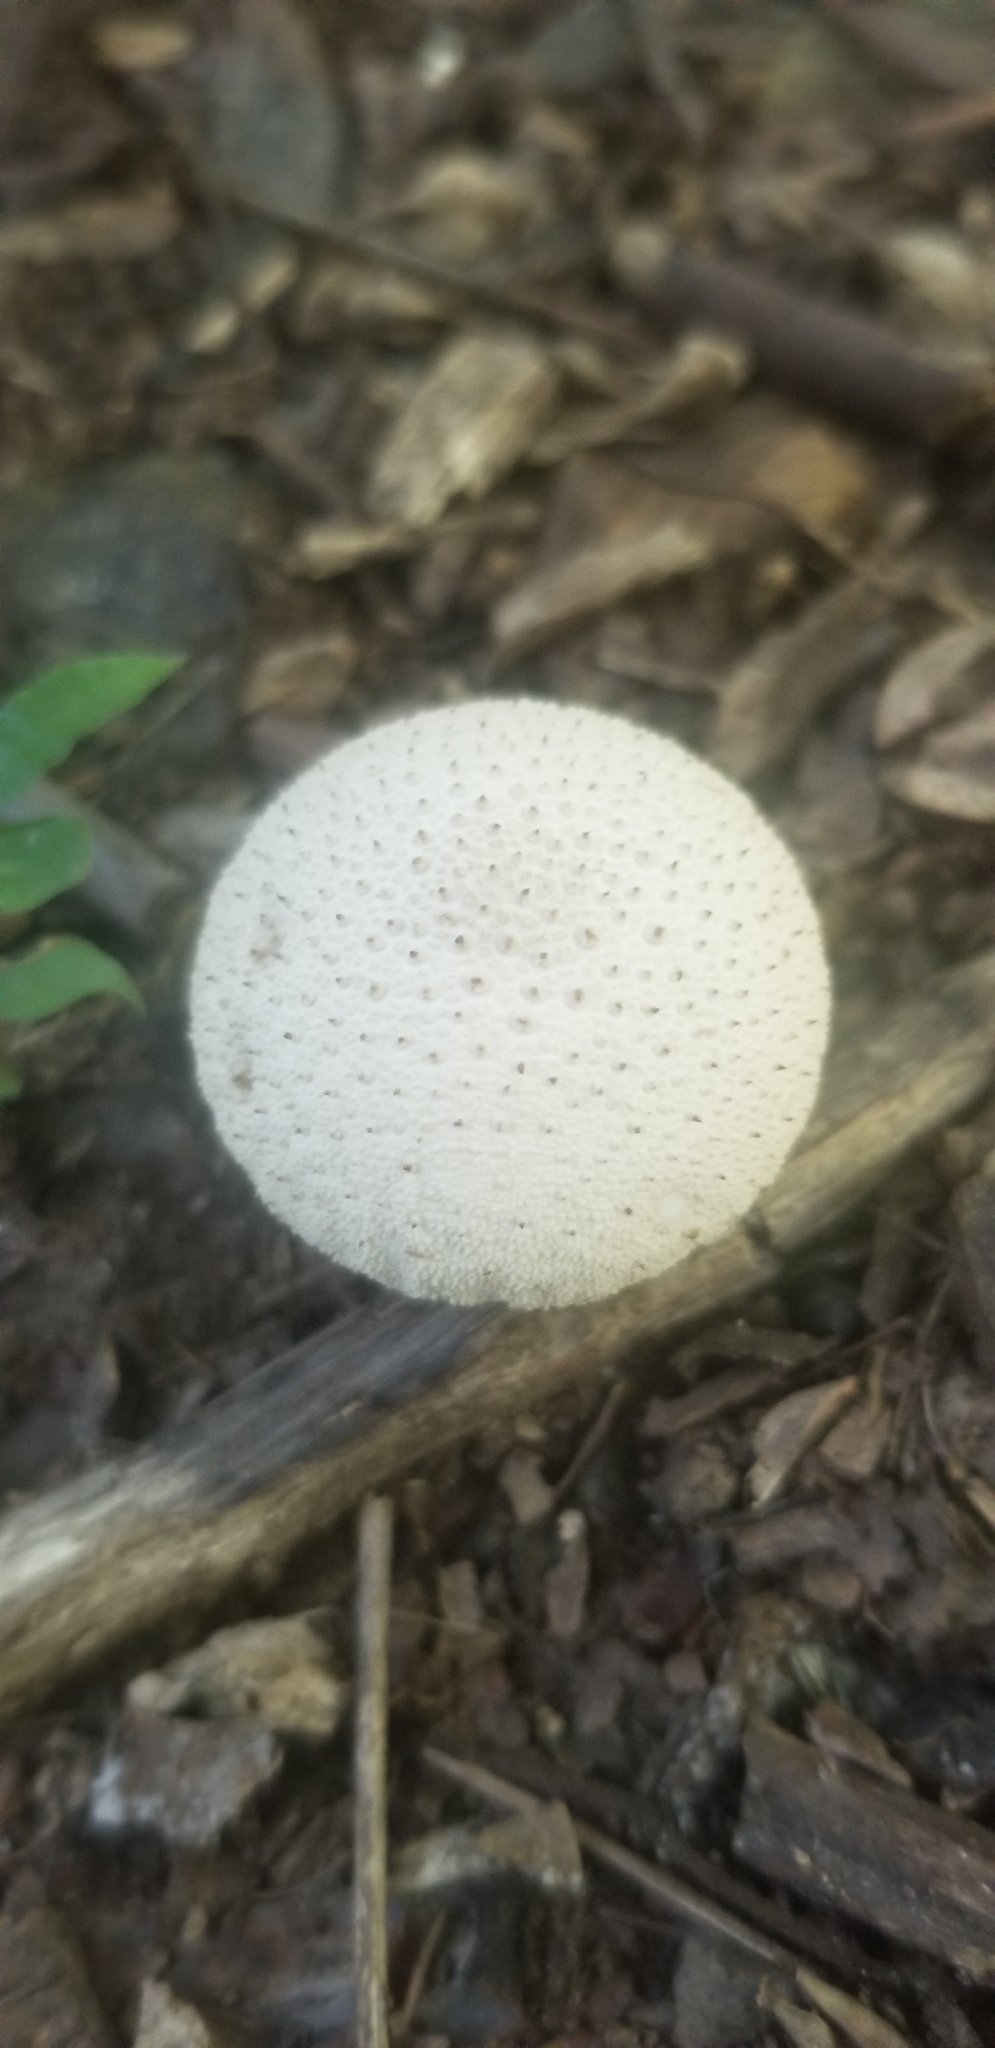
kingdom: Fungi
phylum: Basidiomycota
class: Agaricomycetes
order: Agaricales
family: Lycoperdaceae
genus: Lycoperdon
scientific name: Lycoperdon perlatum
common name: Common puffball
